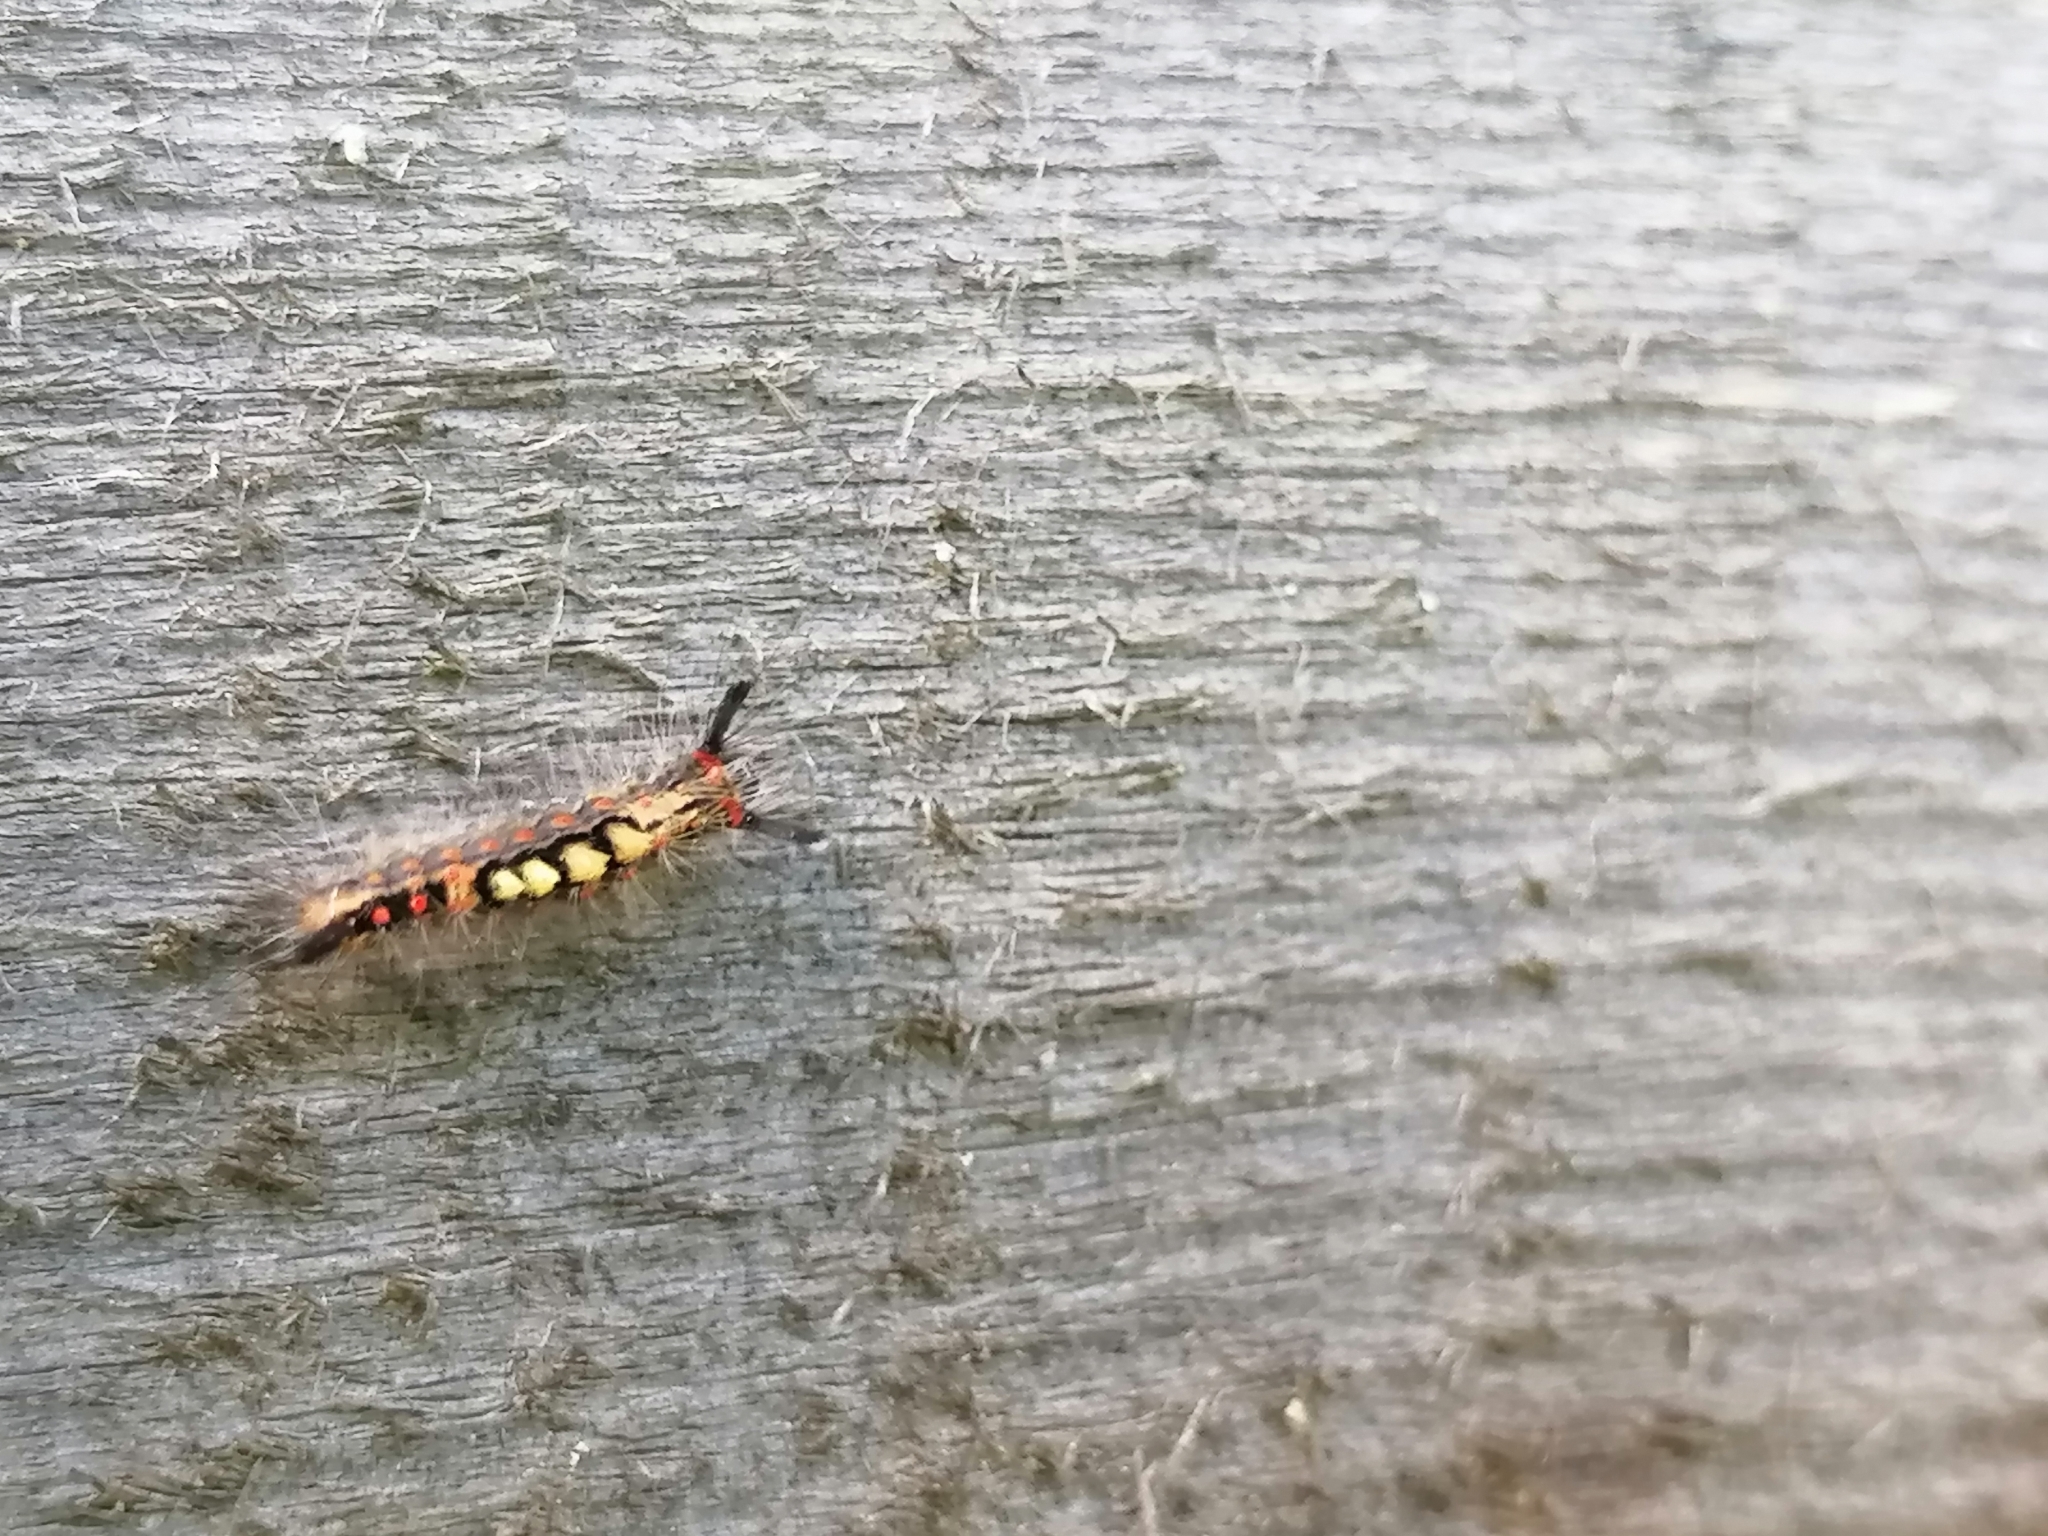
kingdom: Animalia
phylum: Arthropoda
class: Insecta
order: Lepidoptera
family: Erebidae
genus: Orgyia
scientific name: Orgyia antiqua
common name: Vapourer
